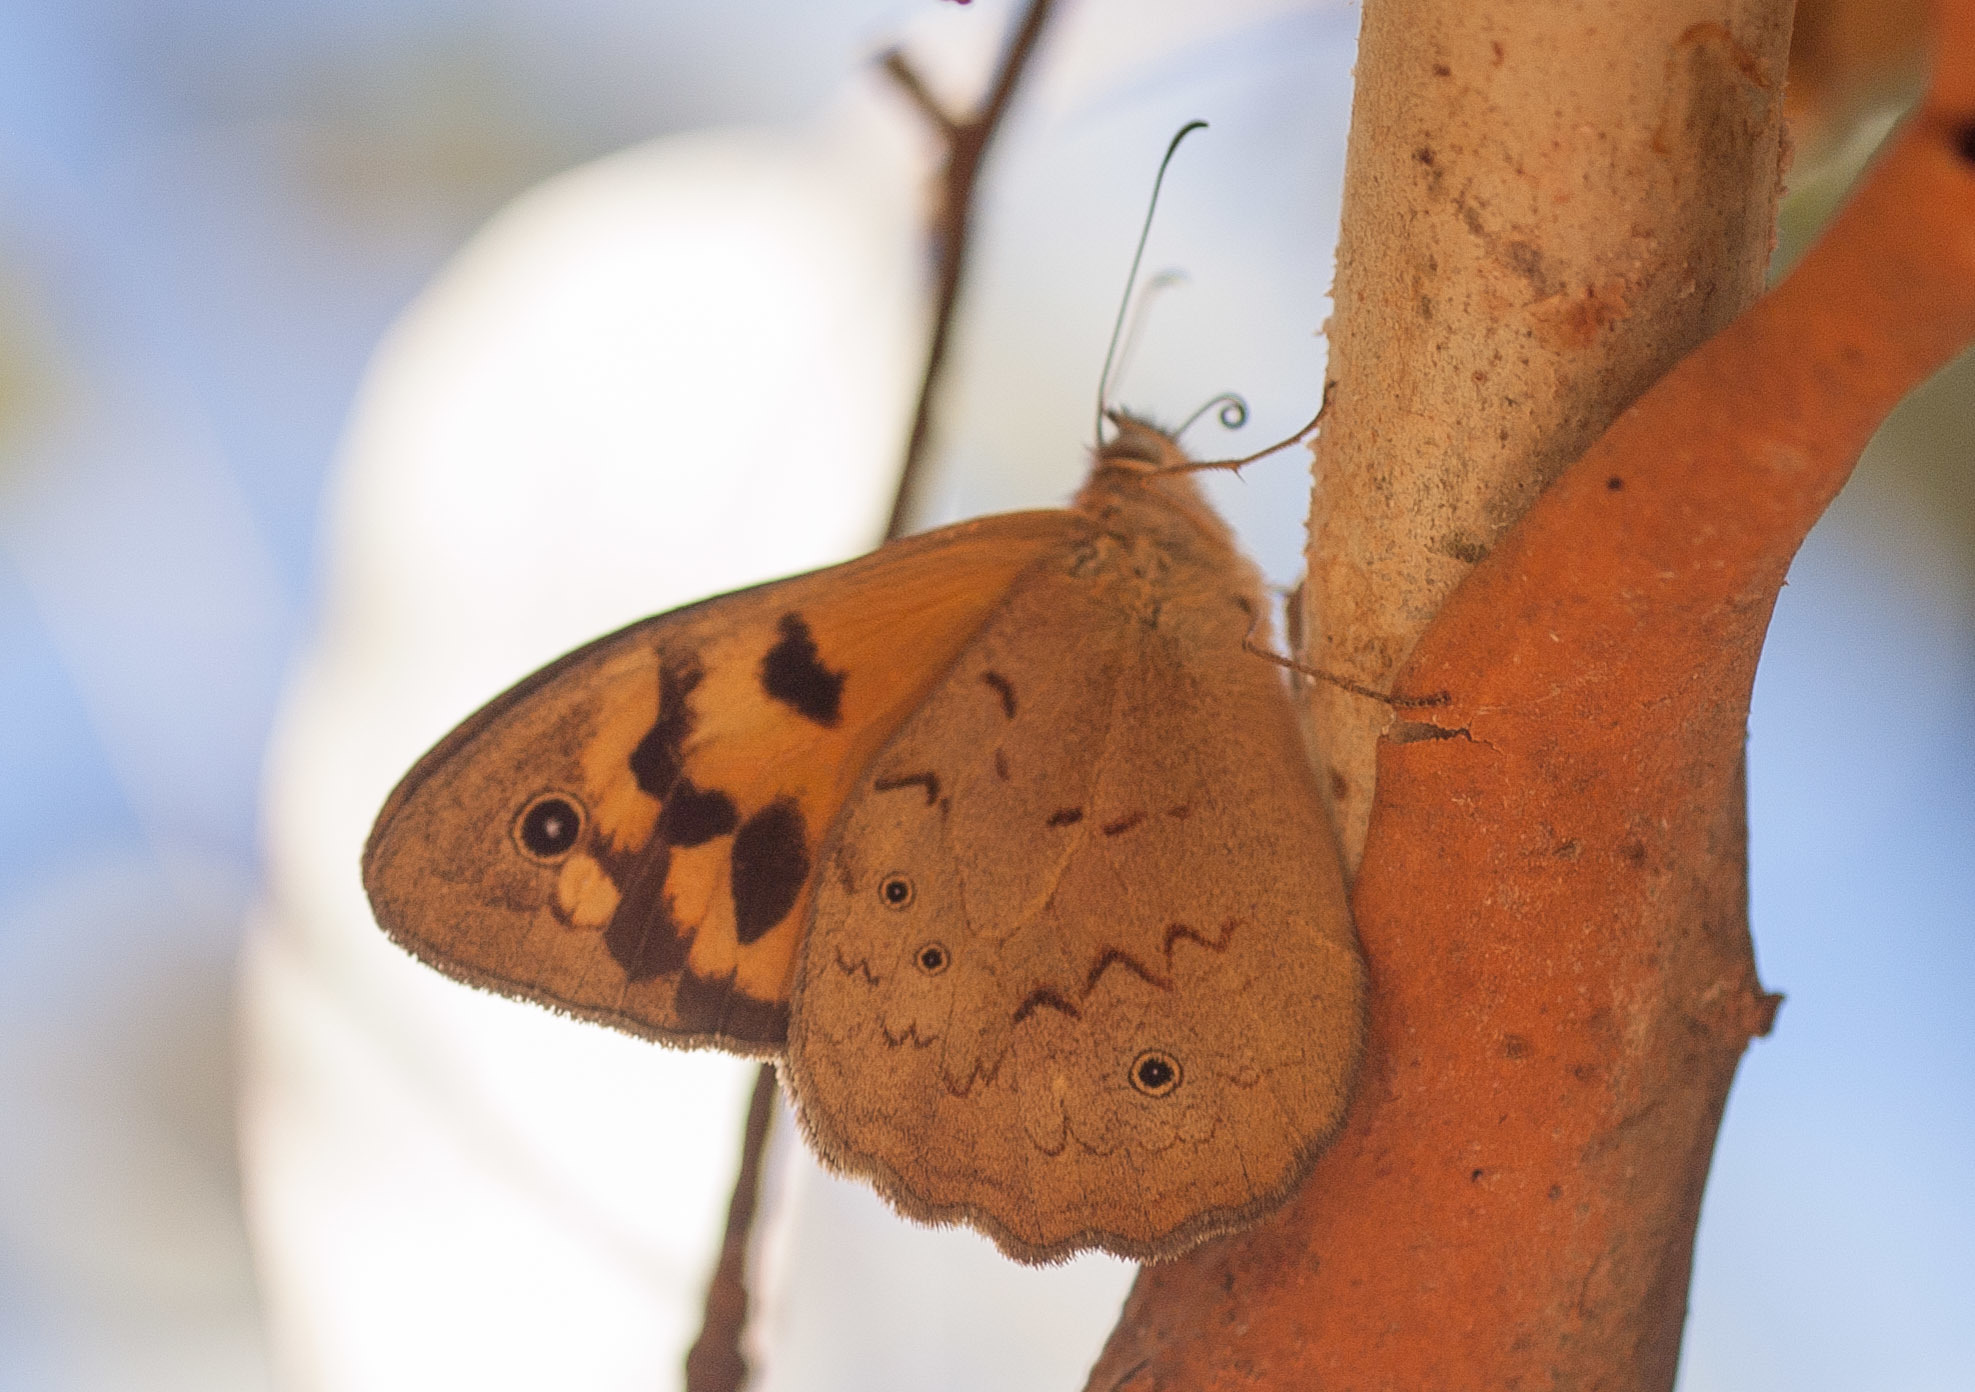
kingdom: Animalia
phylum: Arthropoda
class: Insecta
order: Lepidoptera
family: Nymphalidae
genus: Heteronympha
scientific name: Heteronympha merope
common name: Common brown
